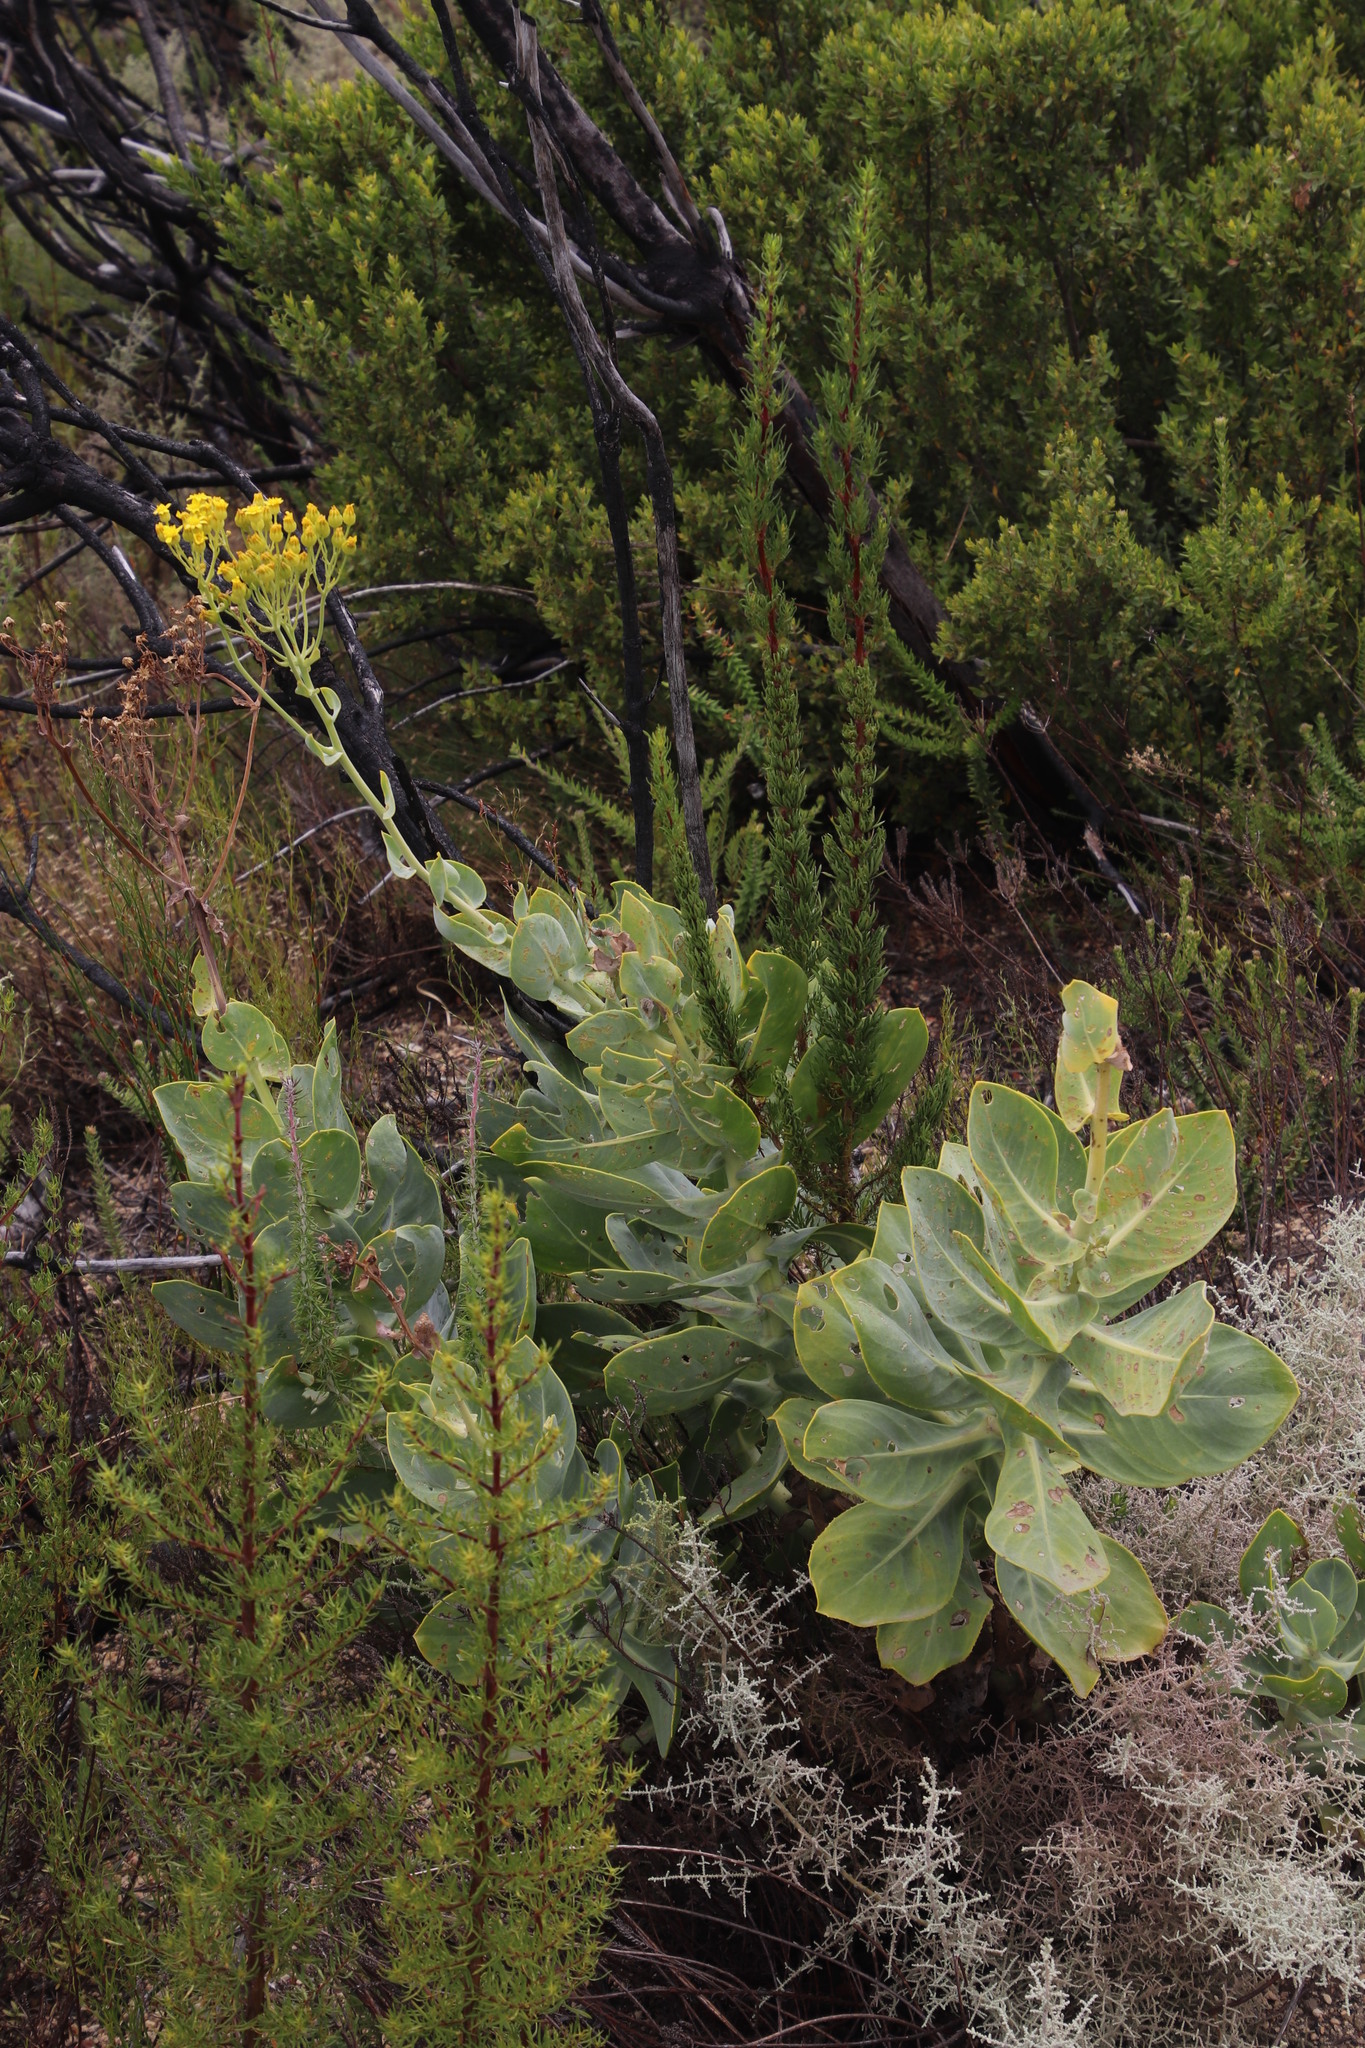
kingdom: Plantae
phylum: Tracheophyta
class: Magnoliopsida
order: Asterales
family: Asteraceae
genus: Othonna
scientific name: Othonna parviflora
